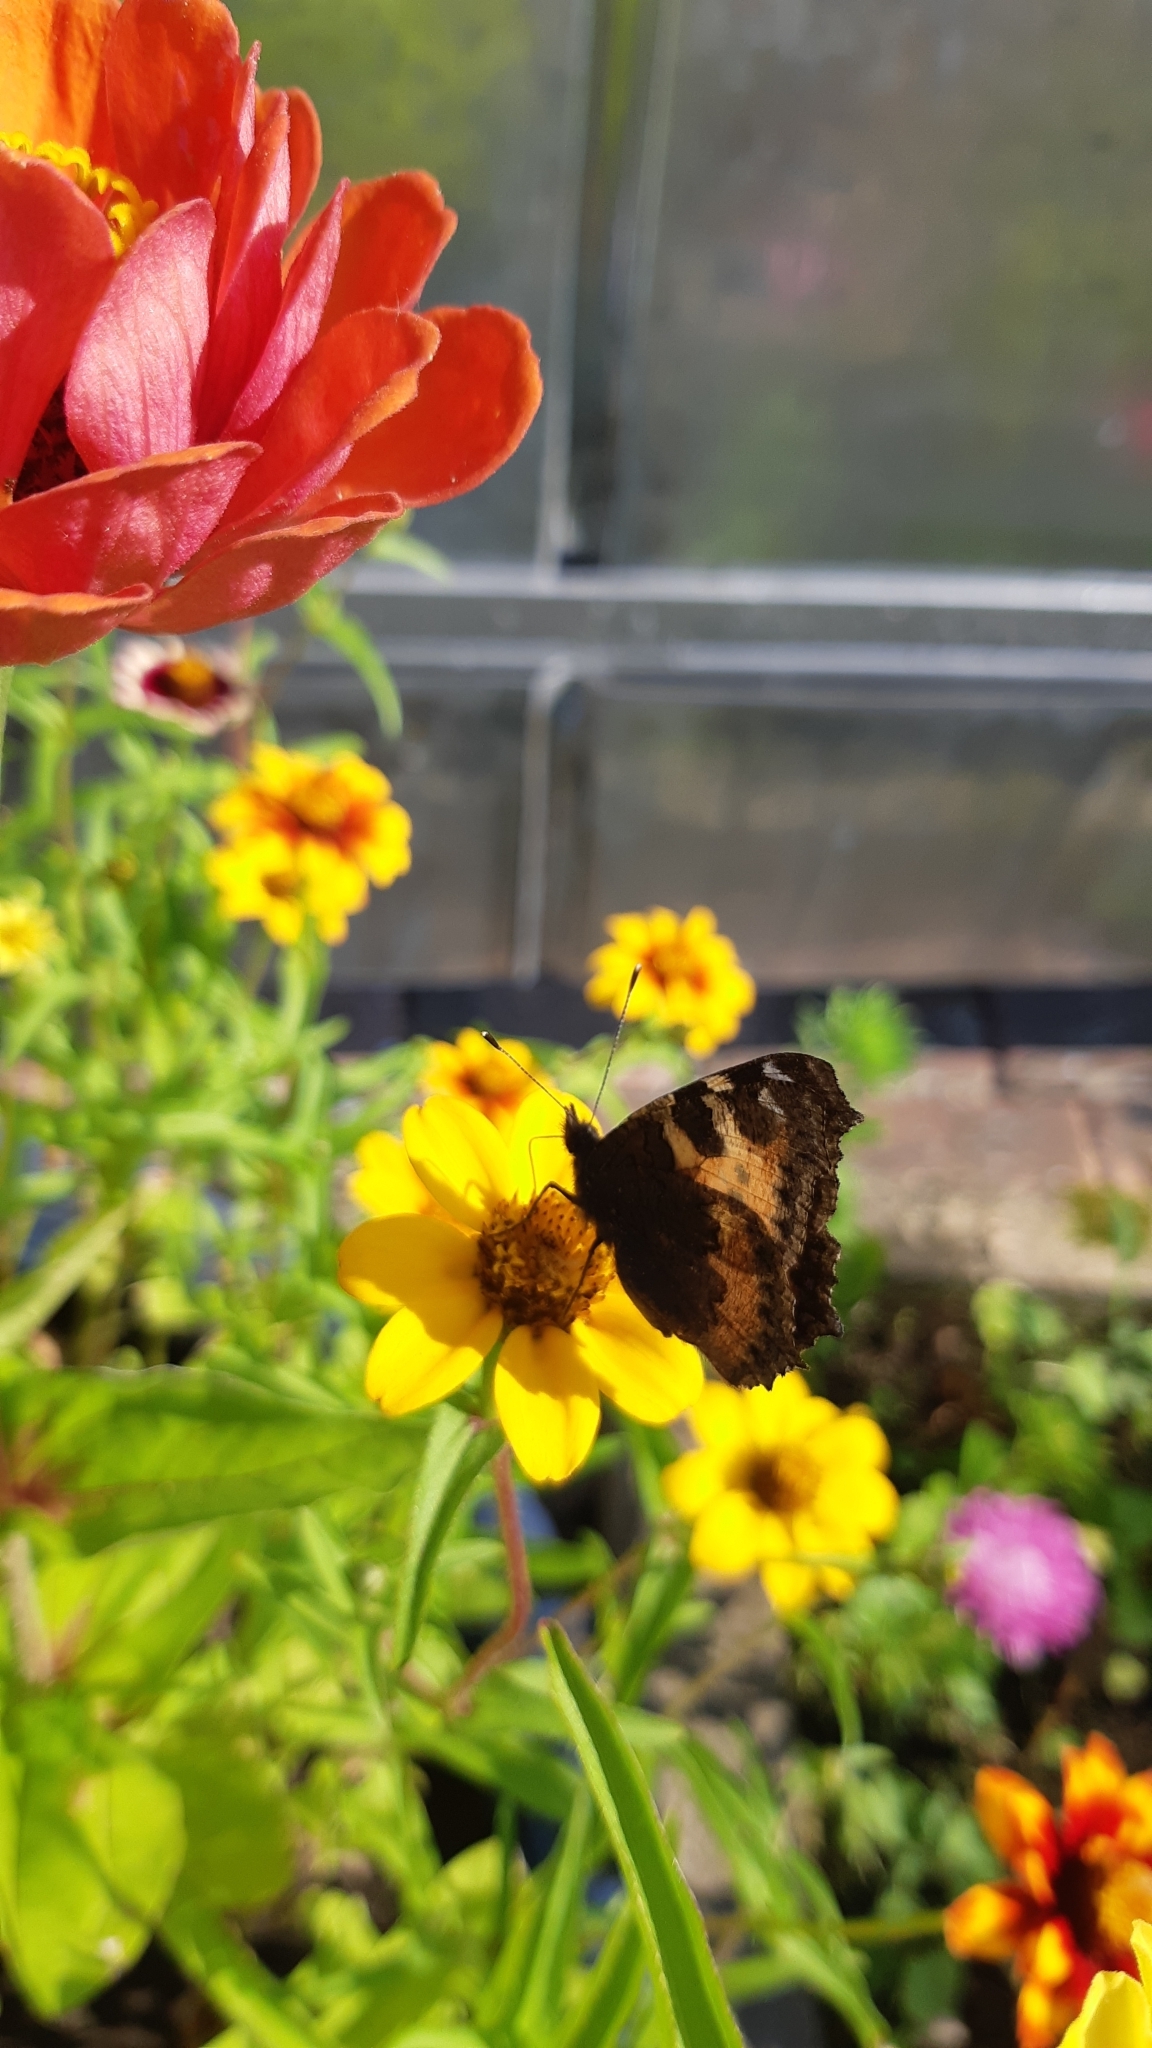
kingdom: Animalia
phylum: Arthropoda
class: Insecta
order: Lepidoptera
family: Nymphalidae
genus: Aglais
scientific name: Aglais urticae
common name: Small tortoiseshell
